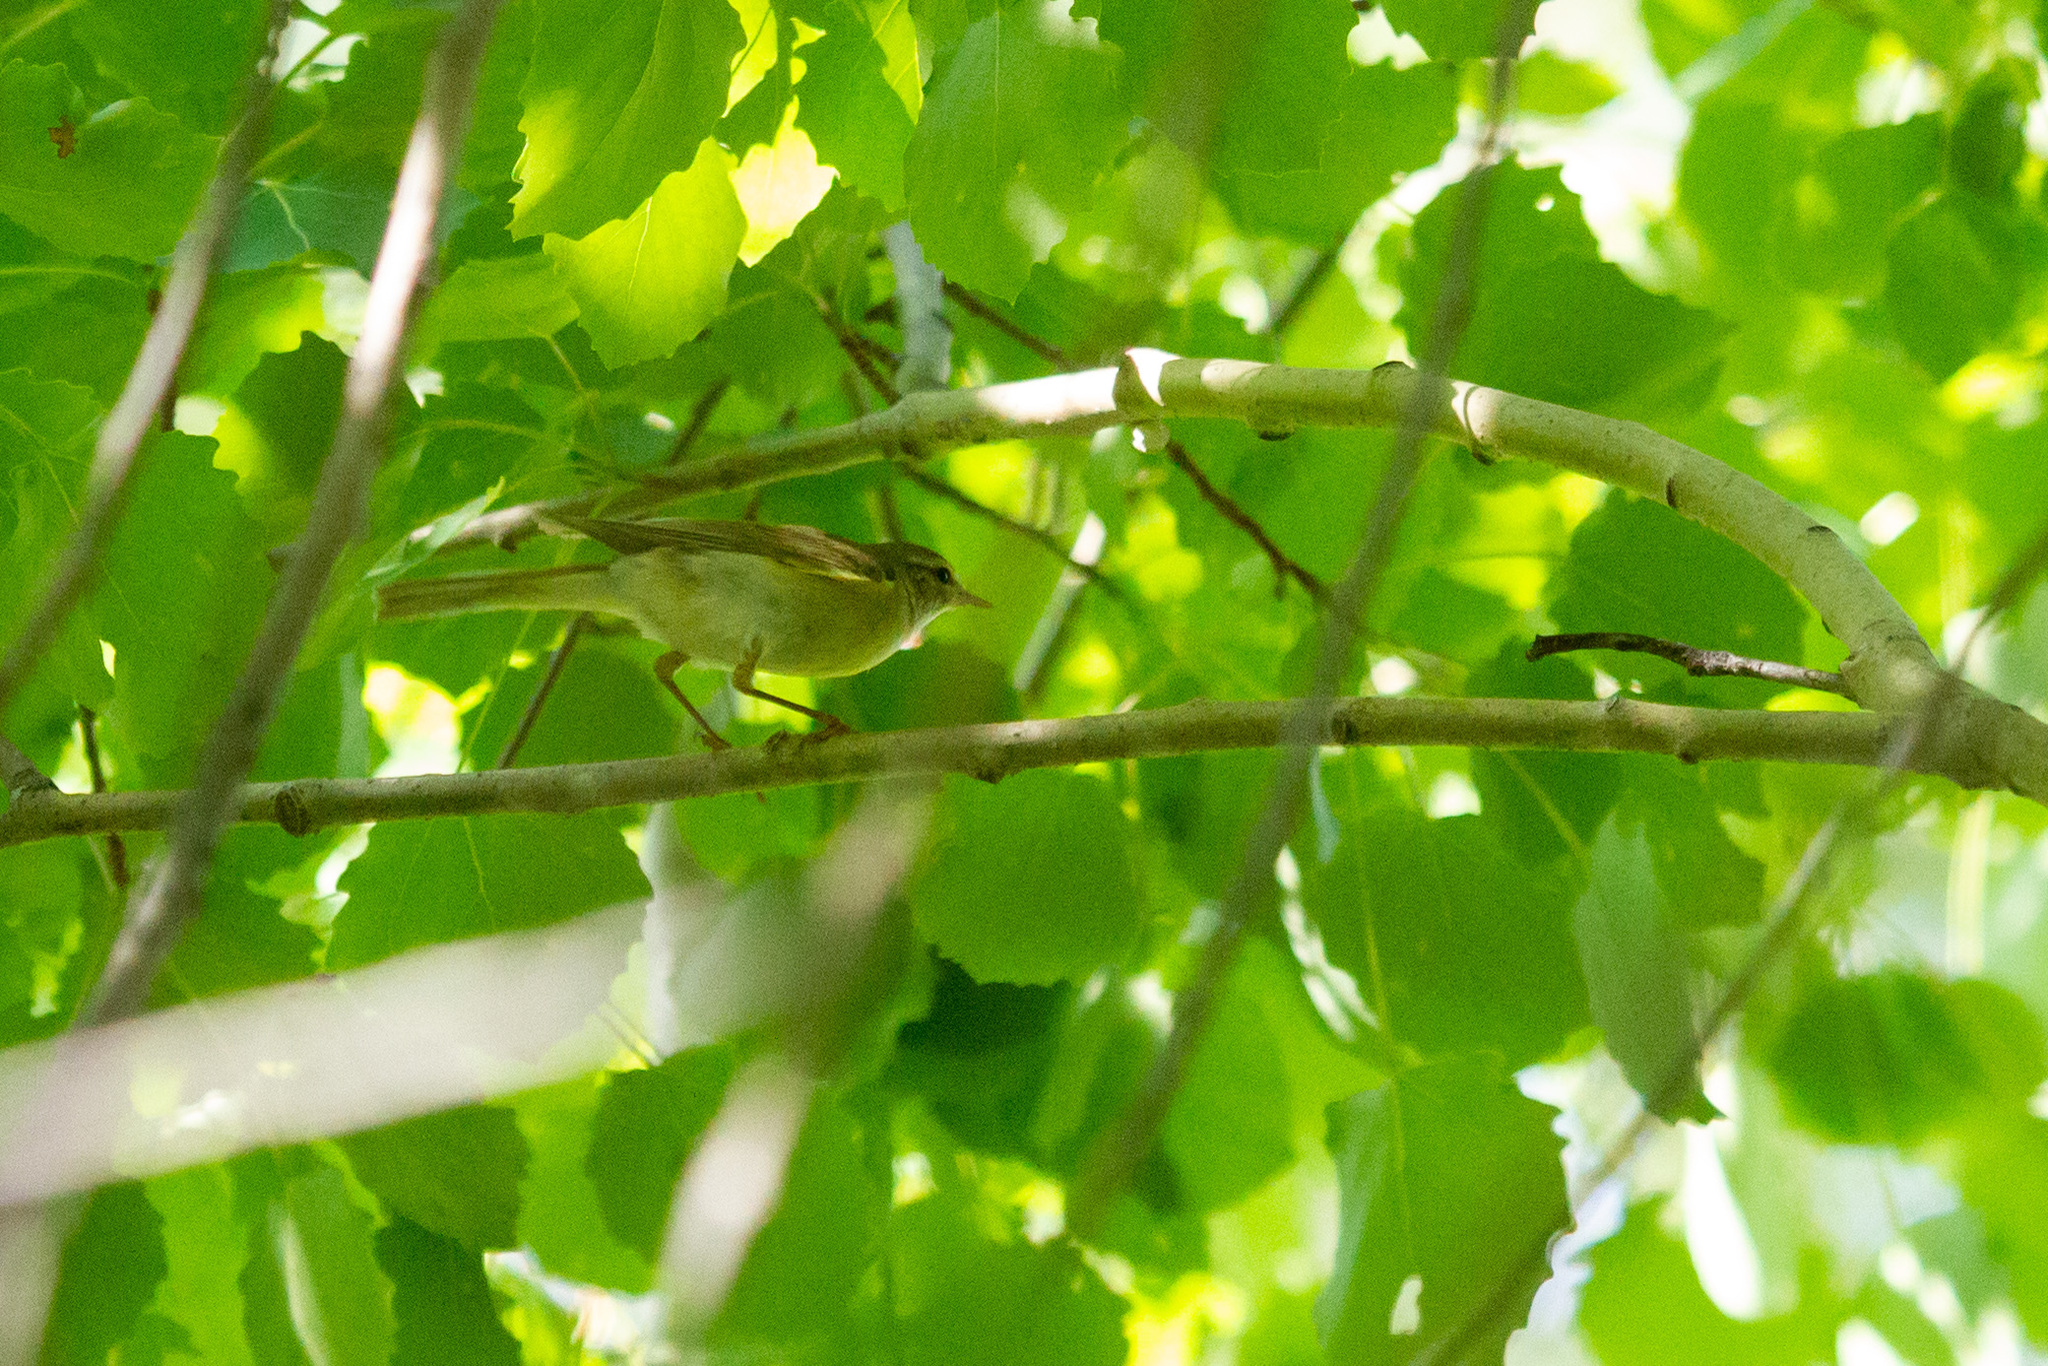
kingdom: Animalia
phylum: Chordata
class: Aves
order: Passeriformes
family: Phylloscopidae
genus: Phylloscopus
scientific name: Phylloscopus trochilus
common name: Willow warbler
